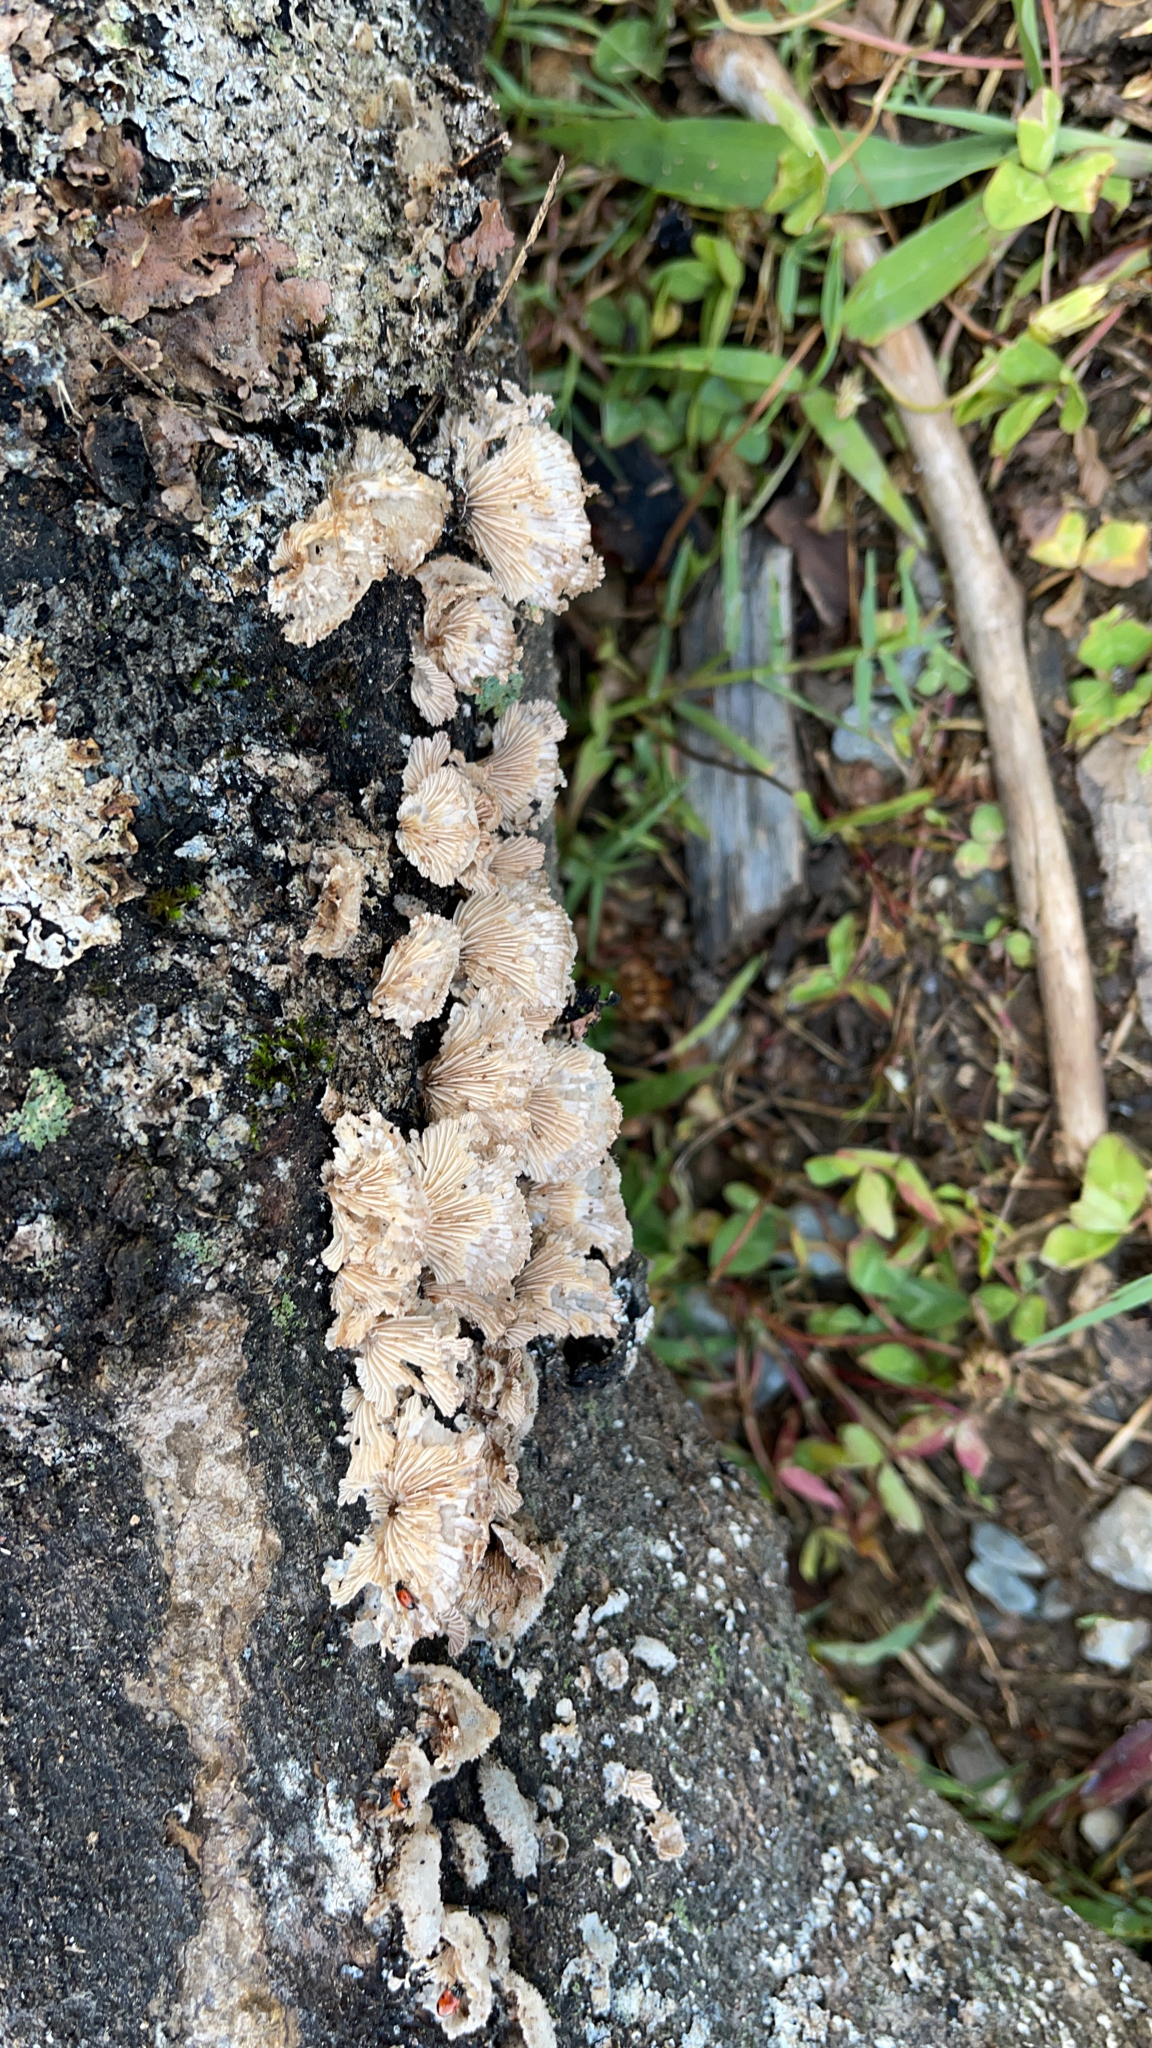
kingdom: Fungi
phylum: Basidiomycota
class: Agaricomycetes
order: Agaricales
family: Schizophyllaceae
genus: Schizophyllum
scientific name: Schizophyllum commune
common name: Common porecrust
